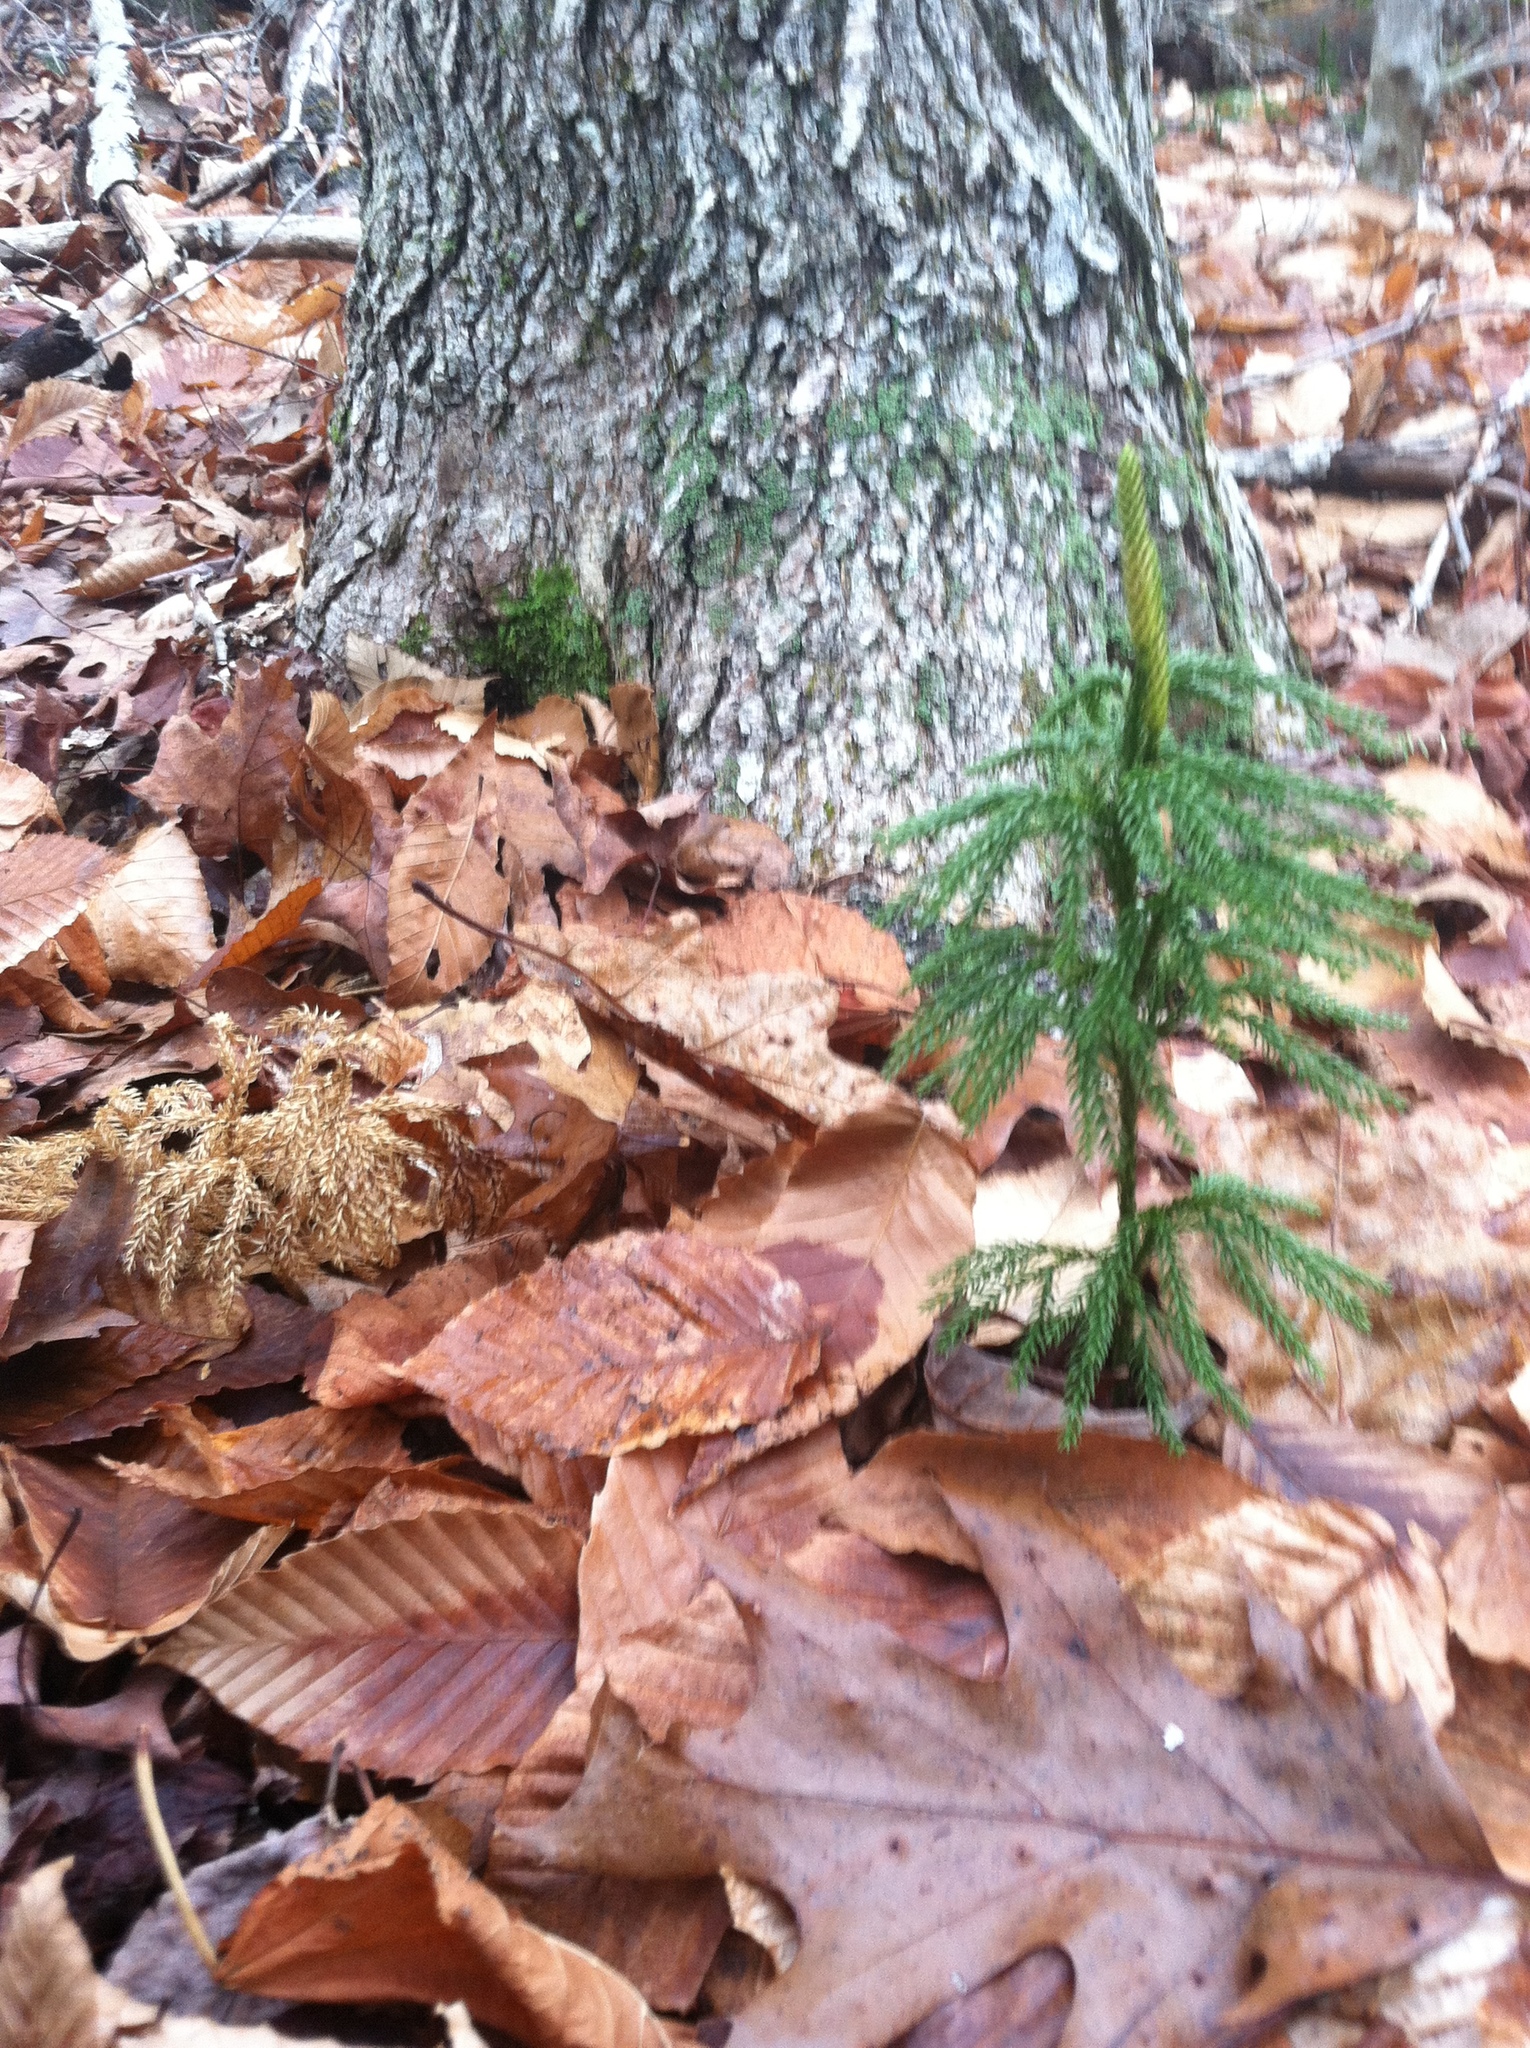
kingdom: Plantae
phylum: Tracheophyta
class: Lycopodiopsida
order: Lycopodiales
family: Lycopodiaceae
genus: Dendrolycopodium
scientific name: Dendrolycopodium obscurum
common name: Common ground-pine
